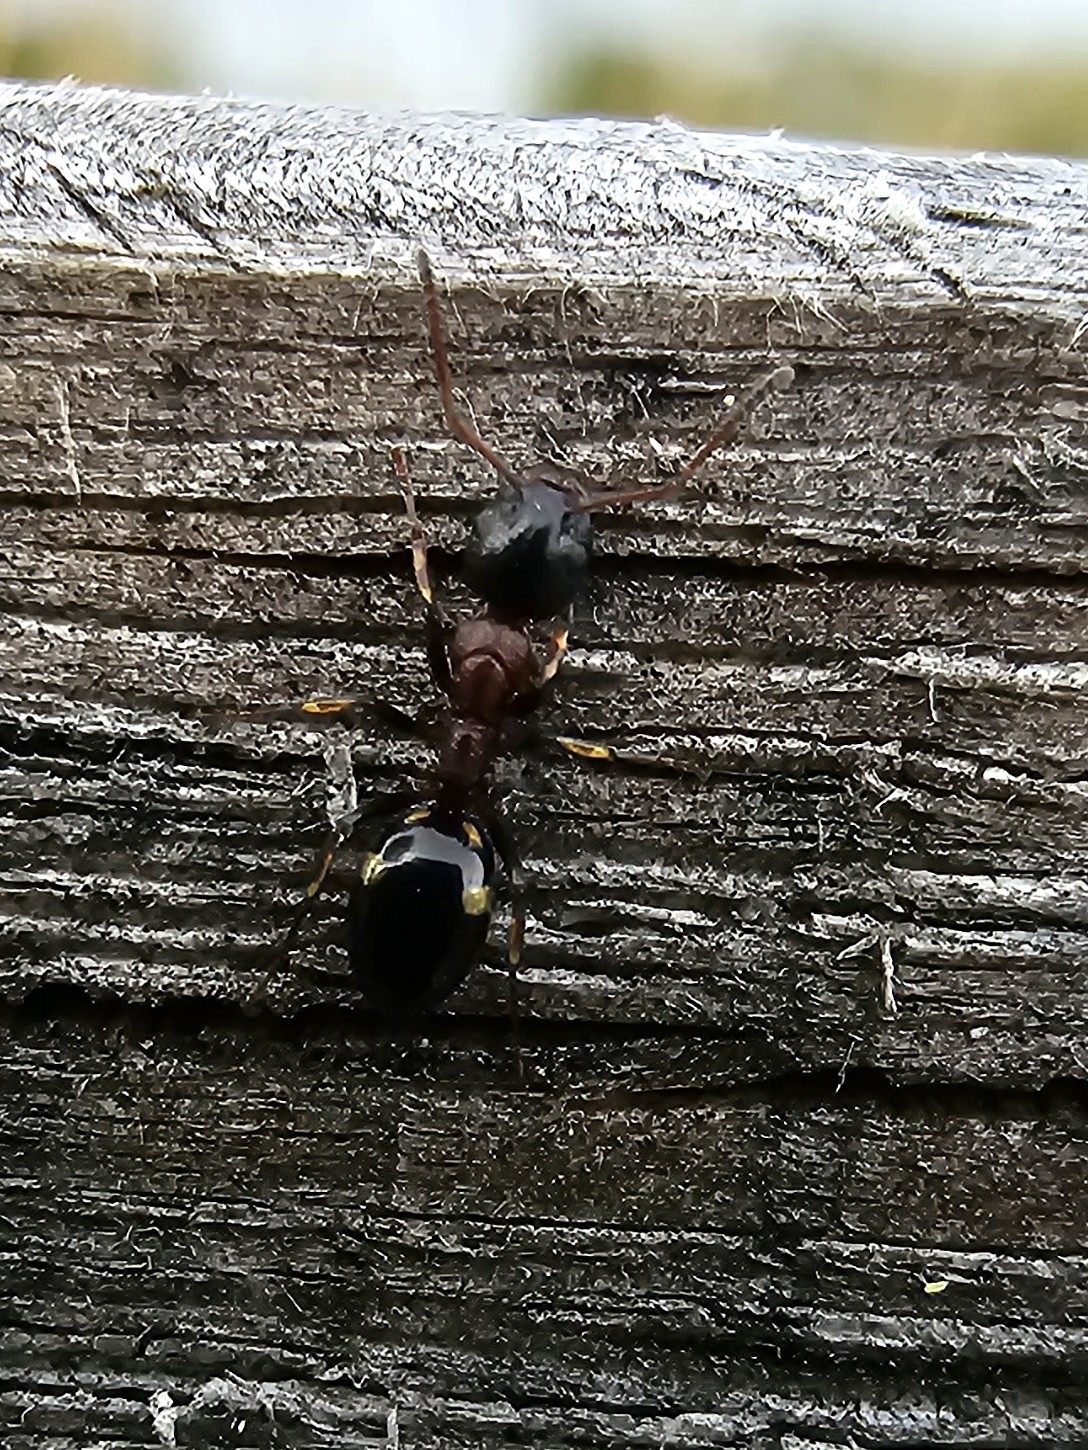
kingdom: Animalia
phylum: Arthropoda
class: Insecta
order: Hymenoptera
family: Formicidae
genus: Dolichoderus
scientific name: Dolichoderus quadripunctatus
